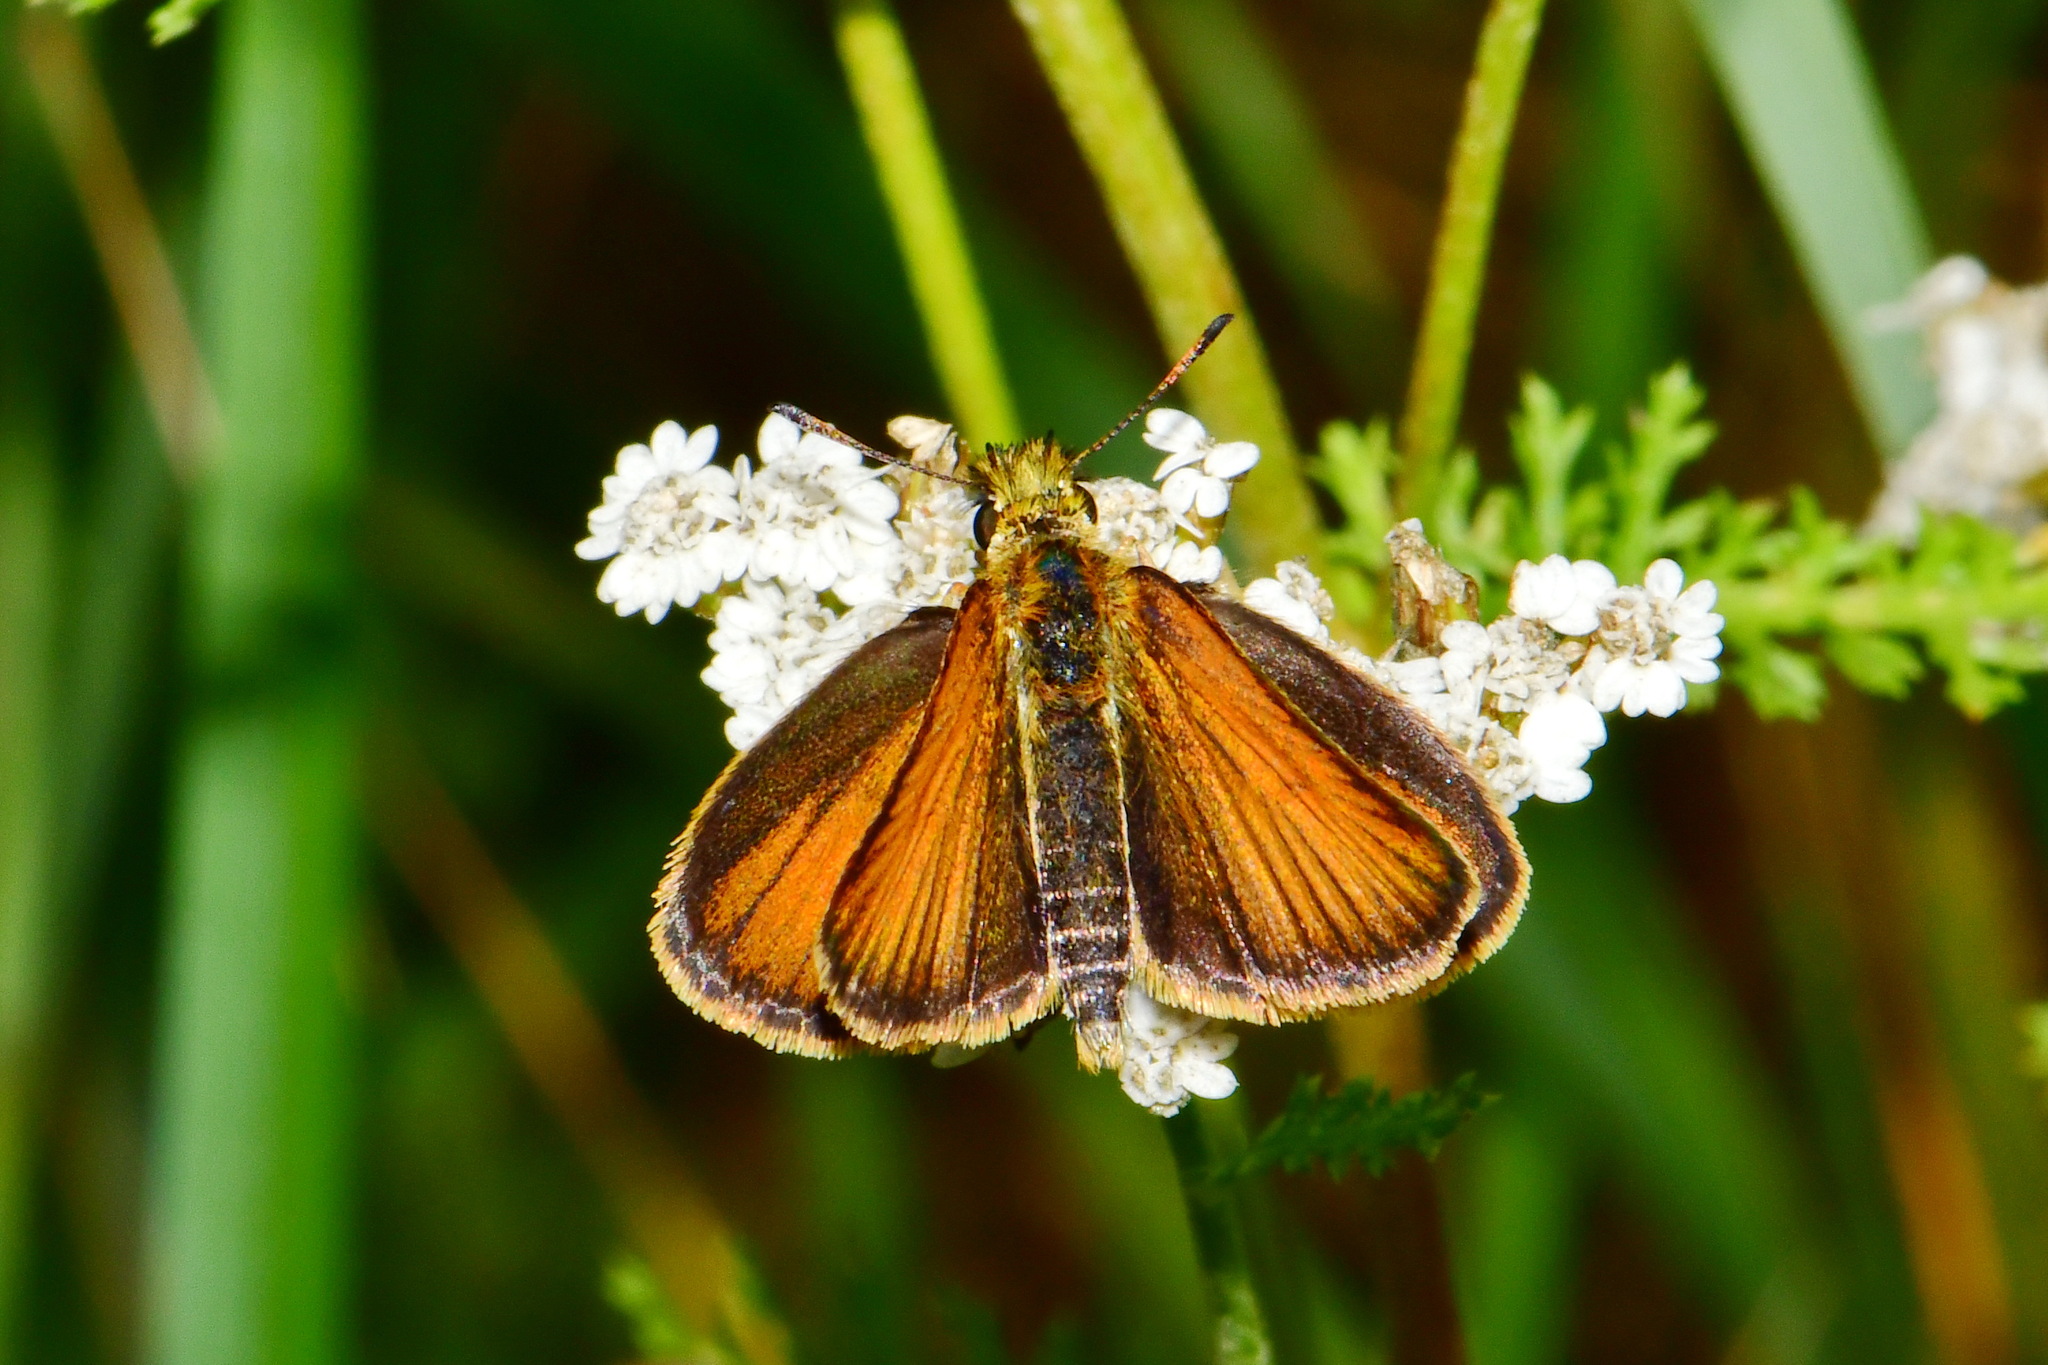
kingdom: Animalia
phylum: Arthropoda
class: Insecta
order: Lepidoptera
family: Hesperiidae
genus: Thymelicus
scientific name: Thymelicus lineola
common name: Essex skipper
